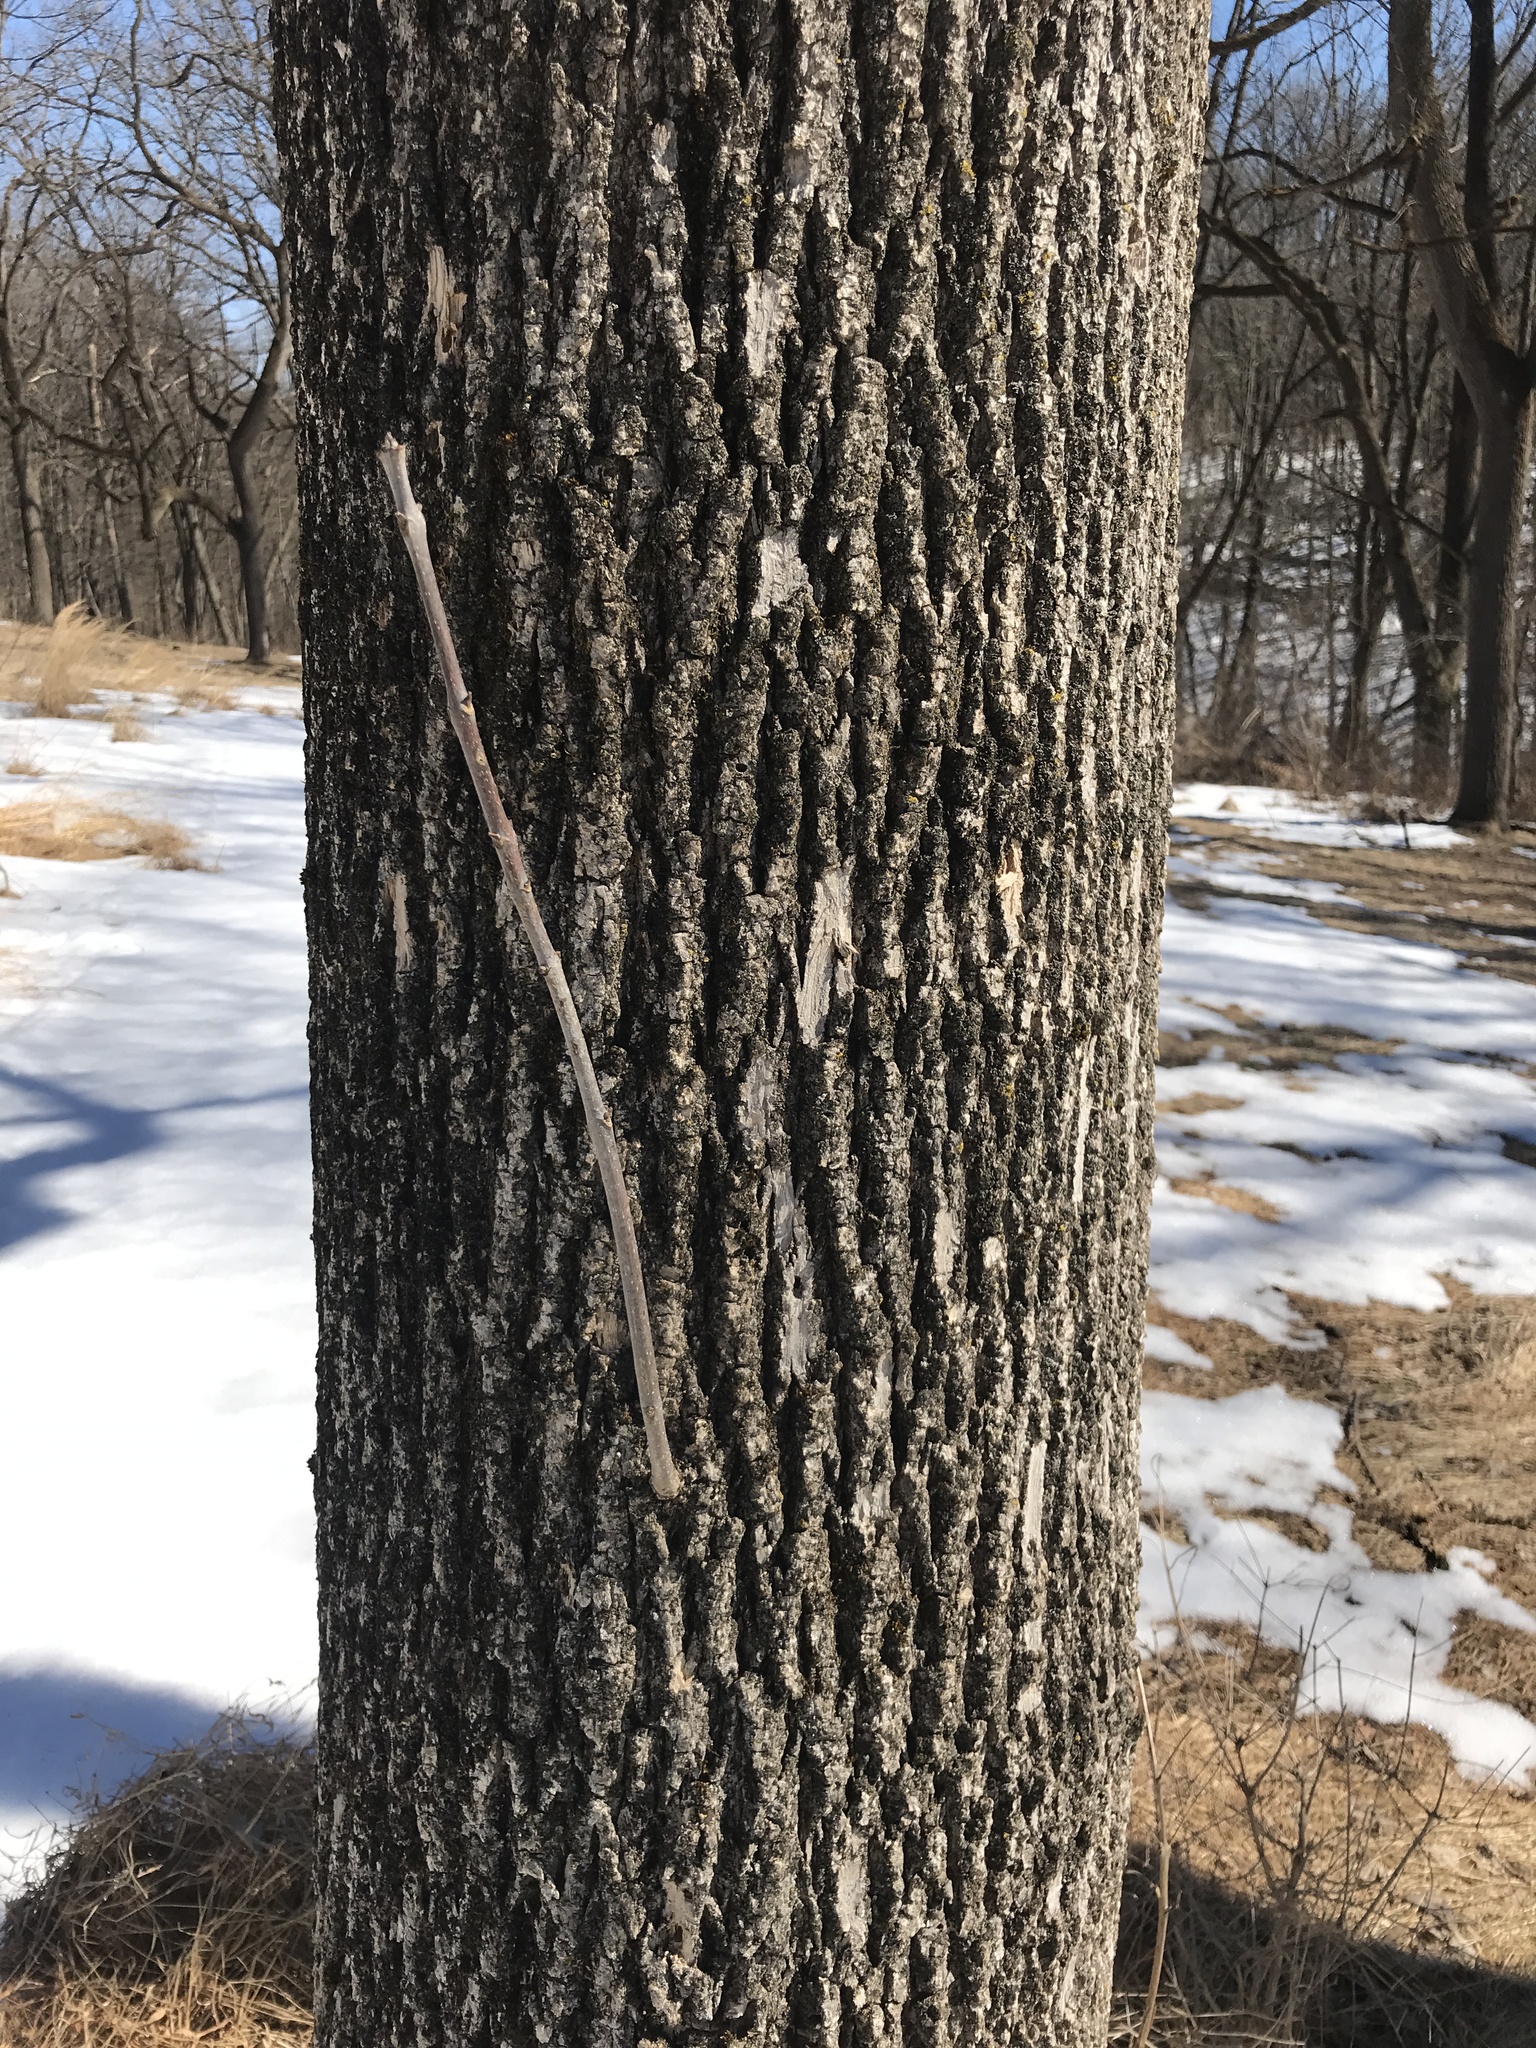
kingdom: Animalia
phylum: Arthropoda
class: Insecta
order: Coleoptera
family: Buprestidae
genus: Agrilus
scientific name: Agrilus planipennis
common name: Emerald ash borer
